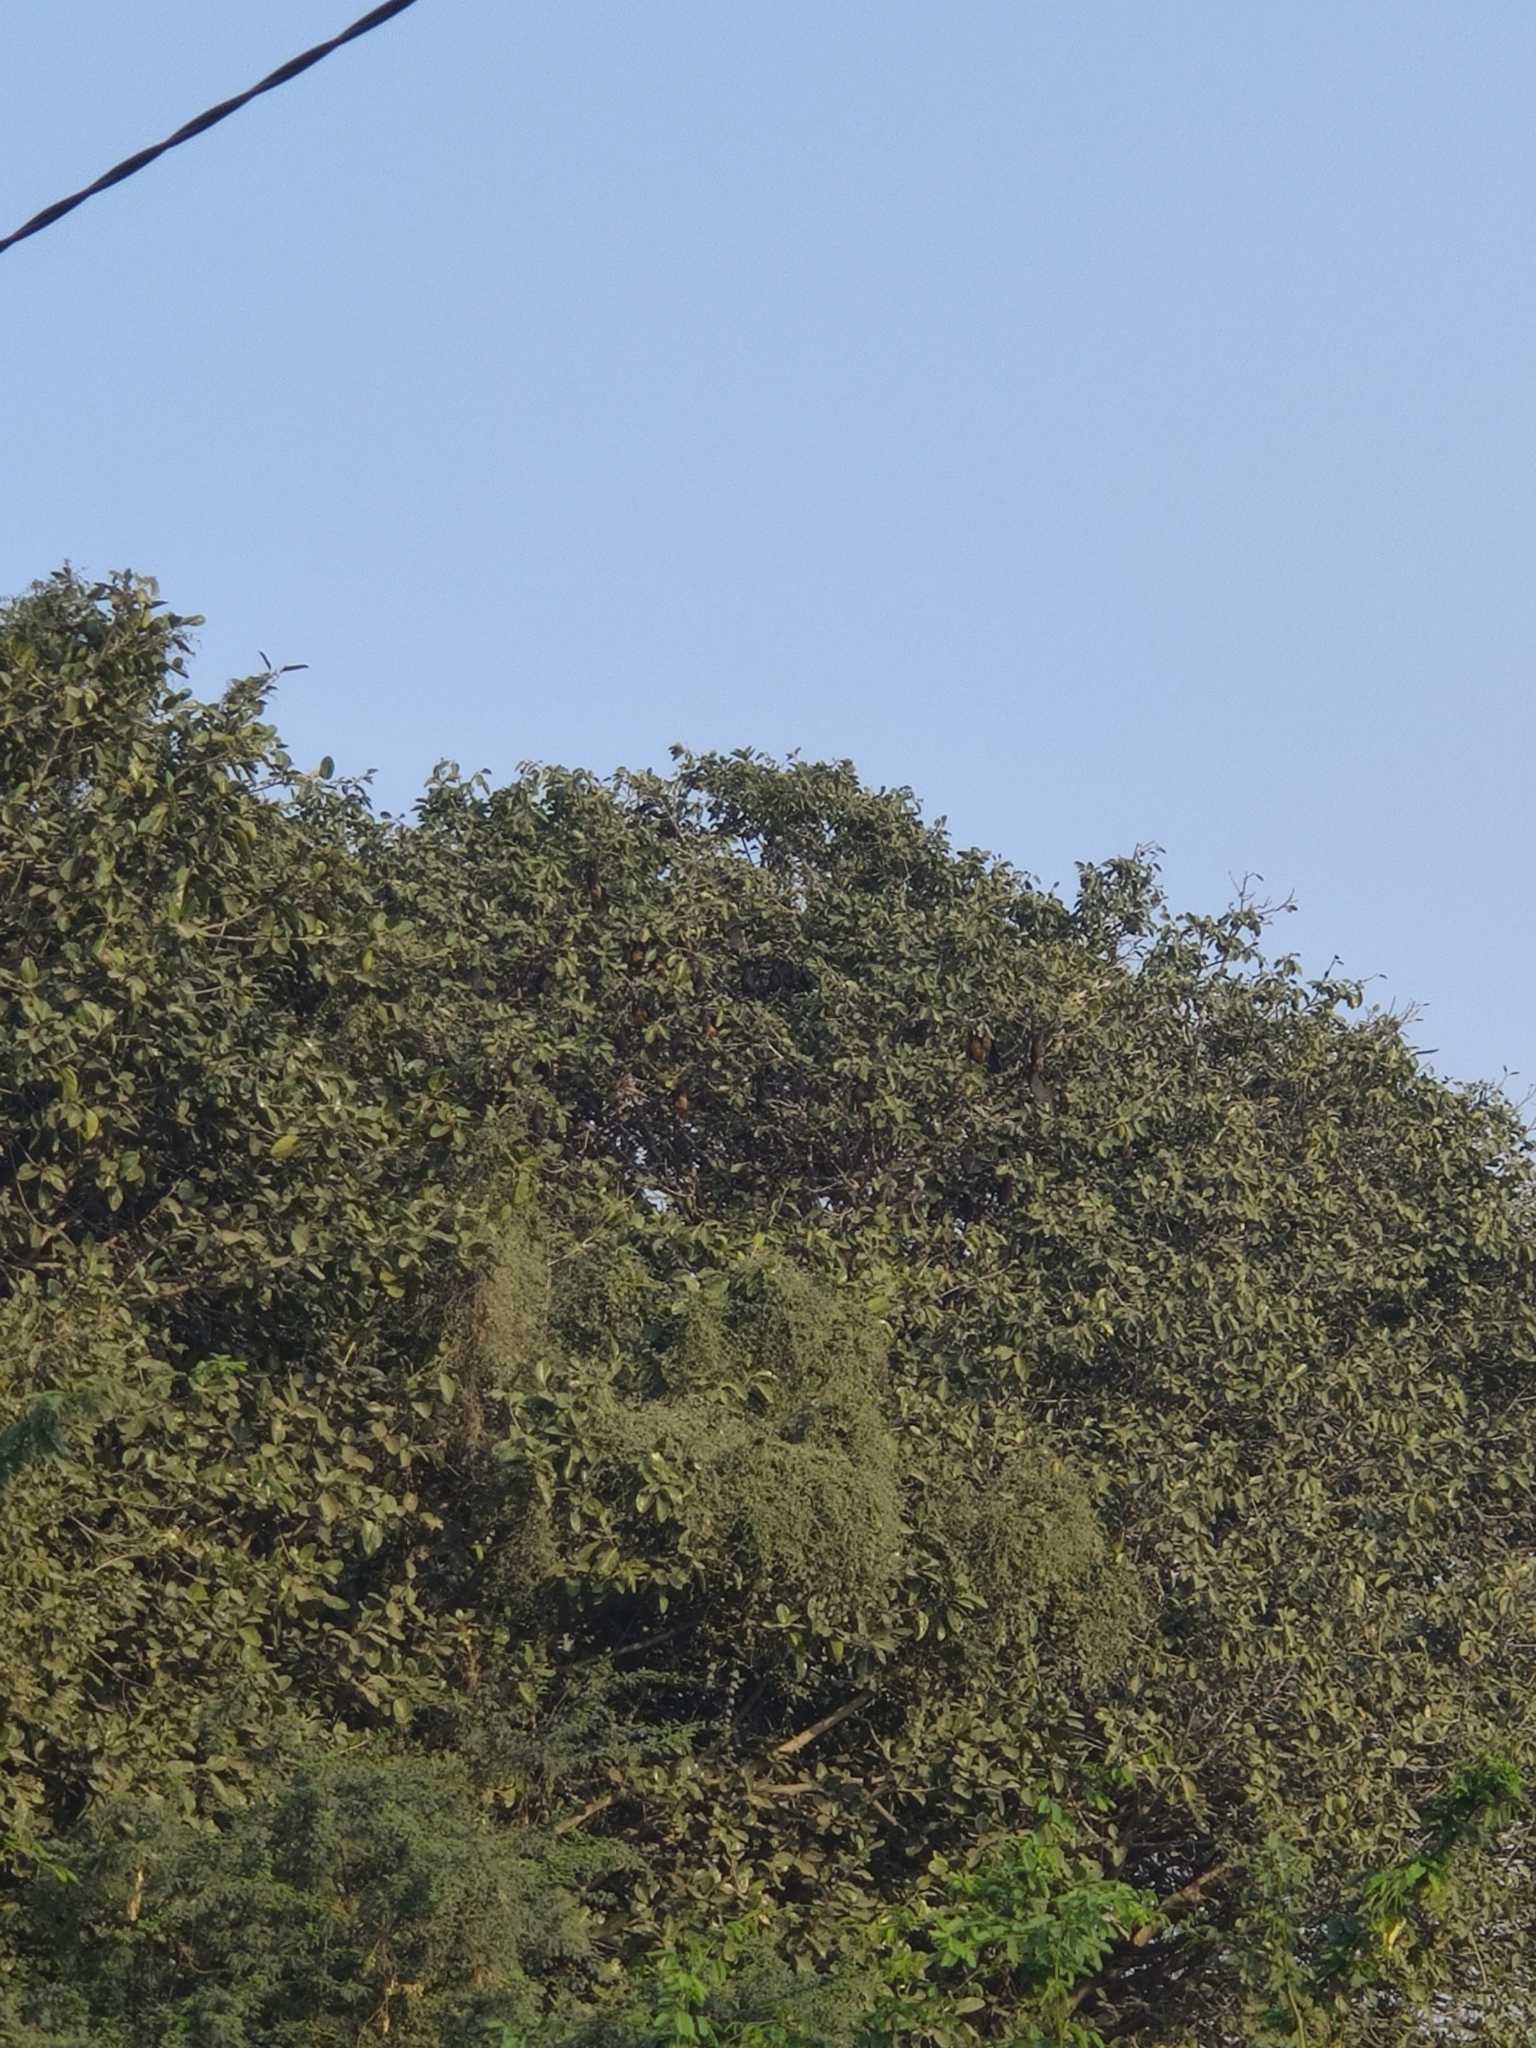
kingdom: Animalia
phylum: Chordata
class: Mammalia
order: Chiroptera
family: Pteropodidae
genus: Pteropus
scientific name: Pteropus vampyrus
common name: Large flying fox
